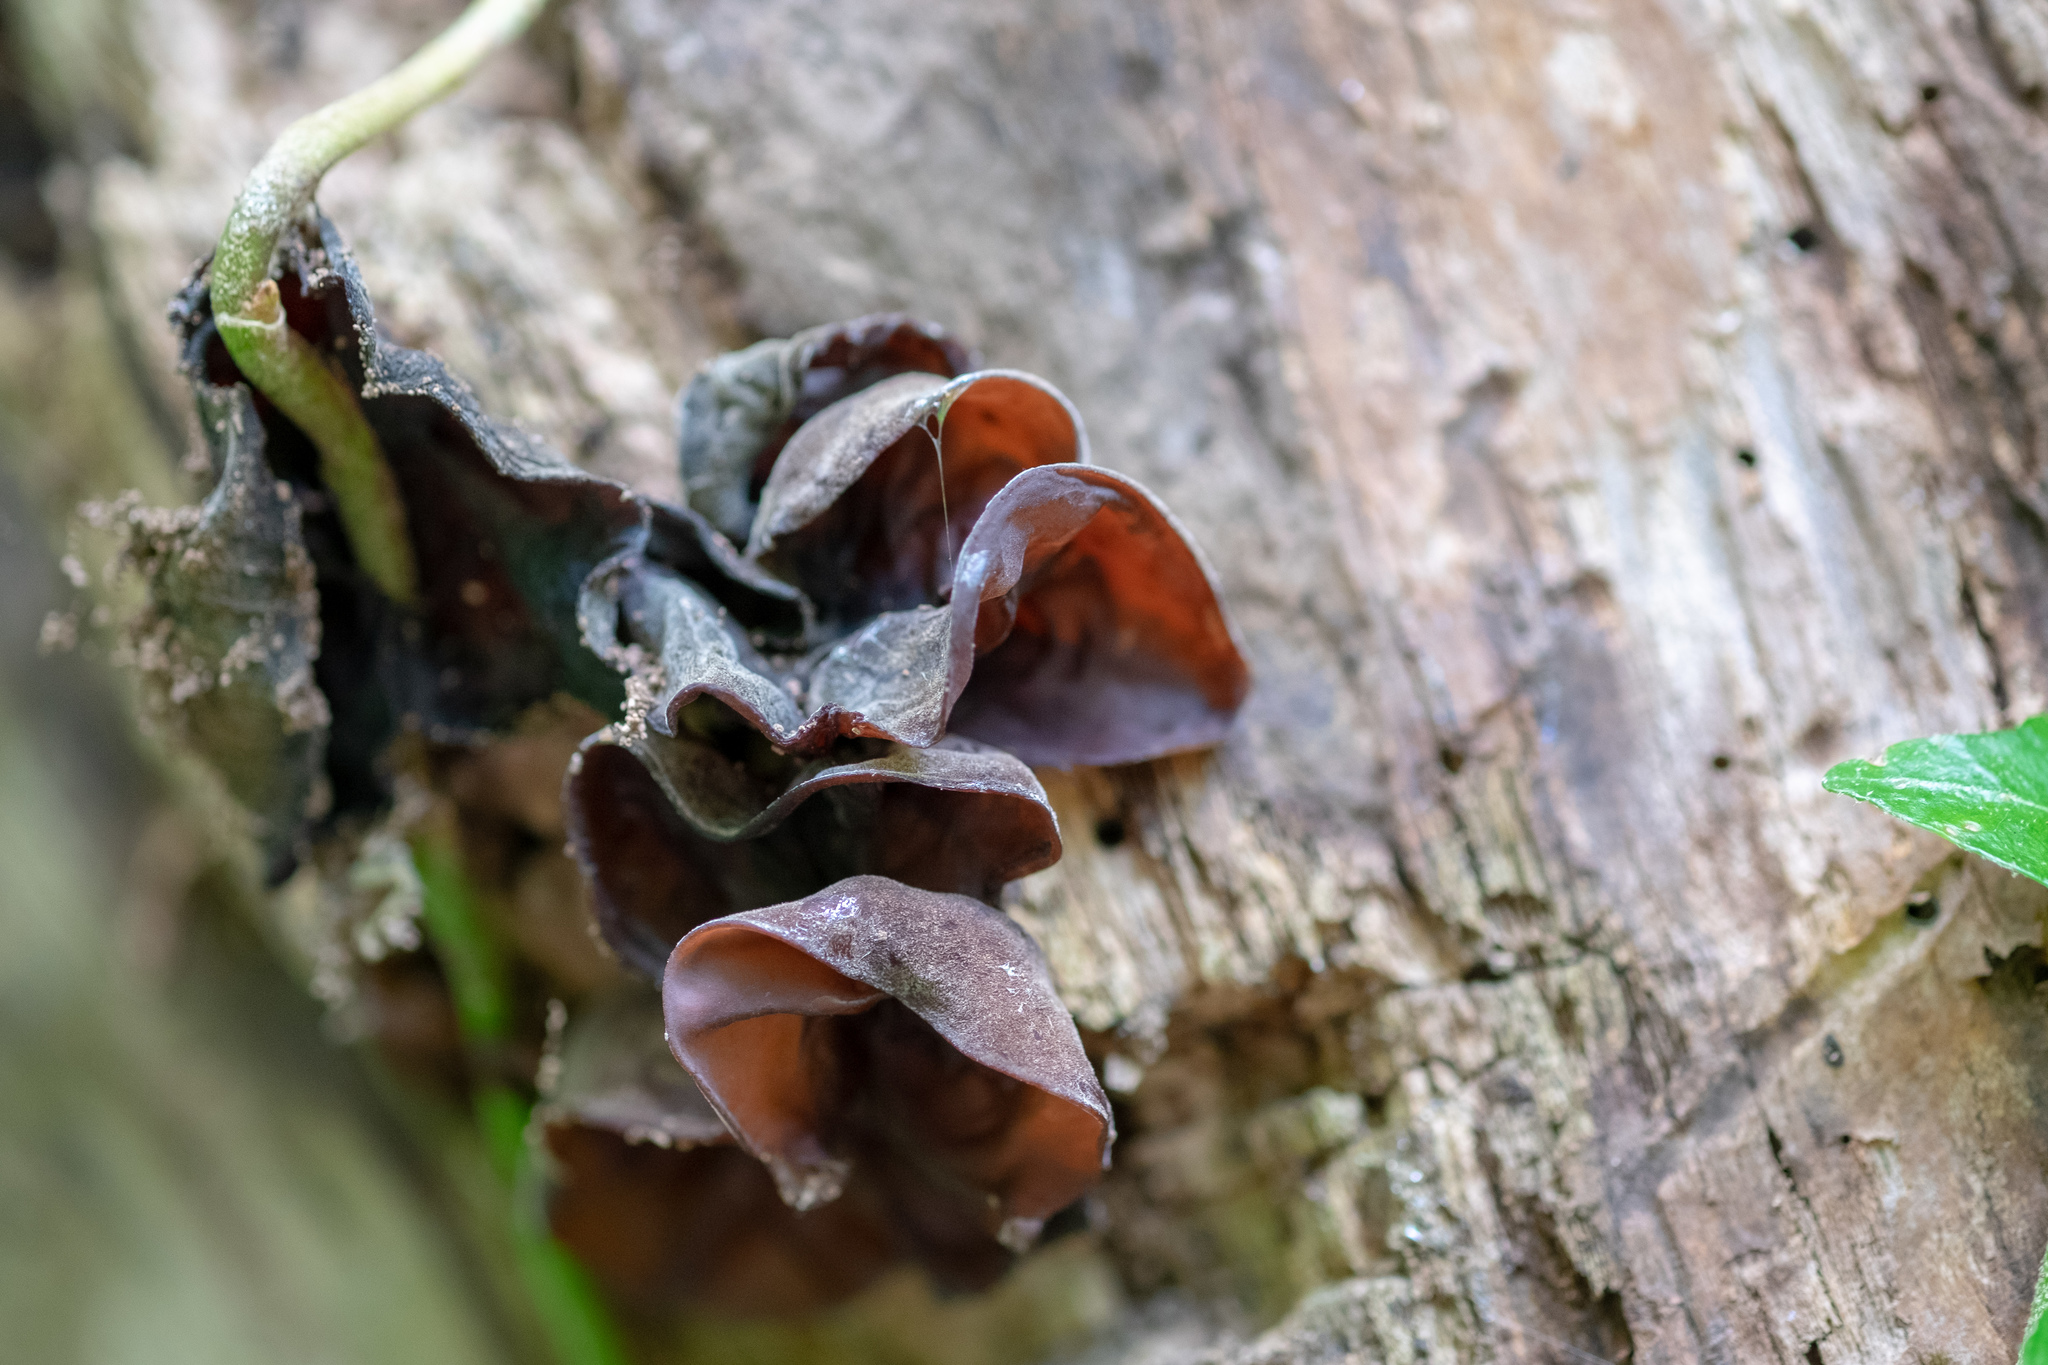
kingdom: Fungi
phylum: Basidiomycota
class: Agaricomycetes
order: Auriculariales
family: Auriculariaceae
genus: Auricularia
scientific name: Auricularia auricula-judae
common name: Jelly ear
